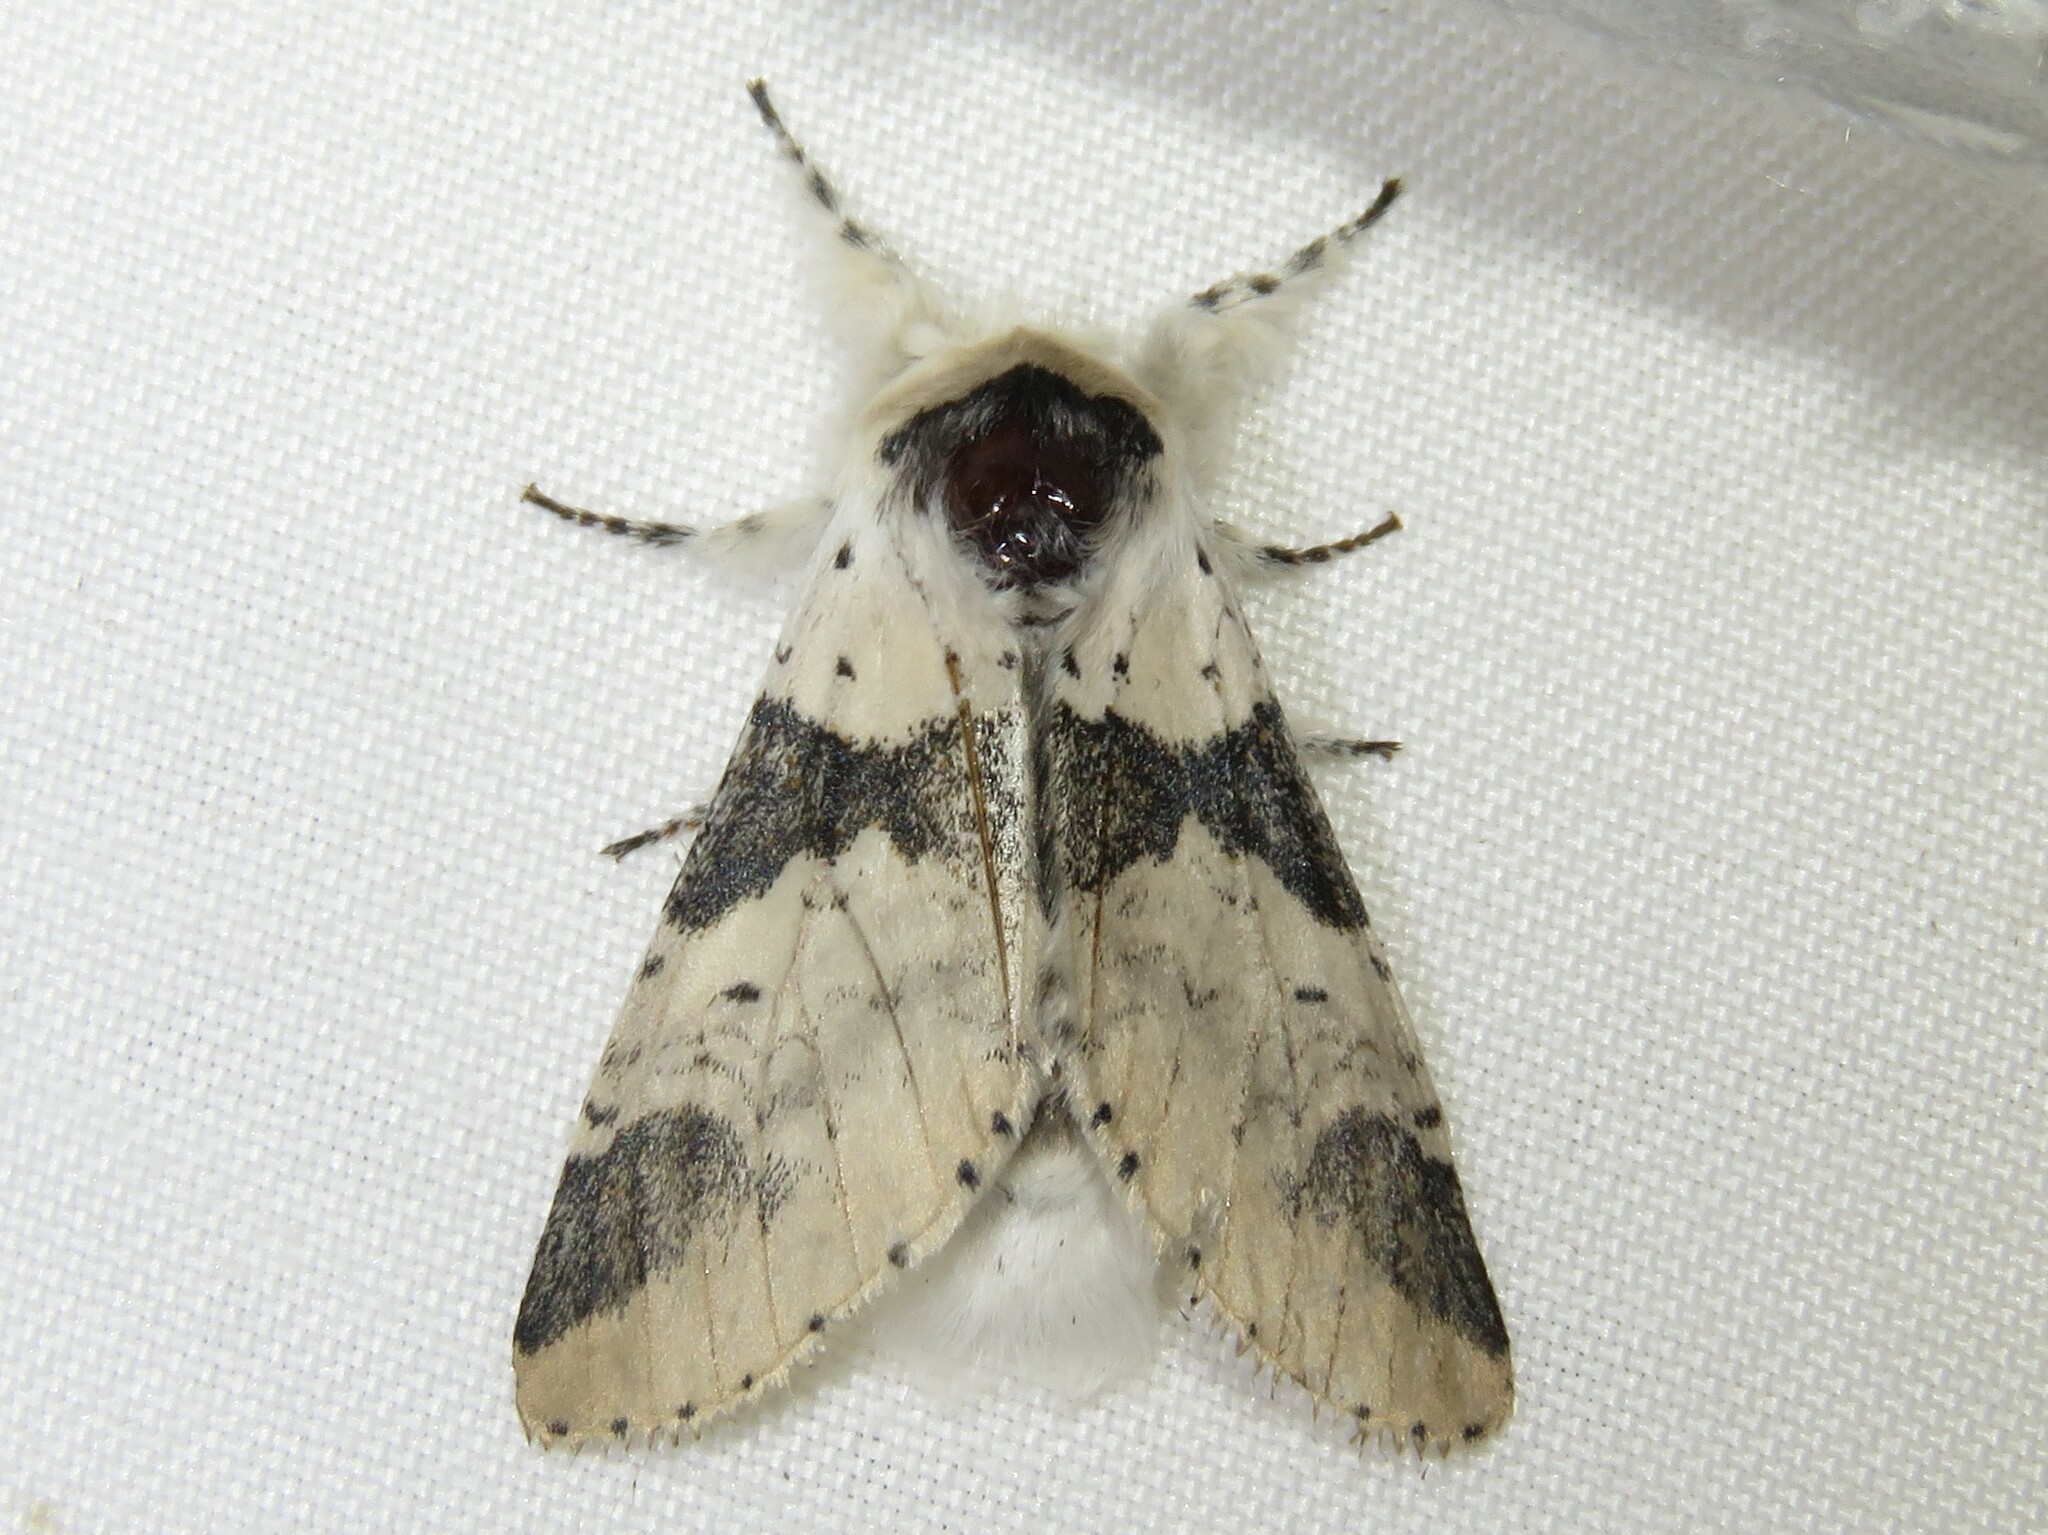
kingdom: Animalia
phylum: Arthropoda
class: Insecta
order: Lepidoptera
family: Notodontidae
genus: Furcula
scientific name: Furcula modesta
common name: Modest furcula moth
